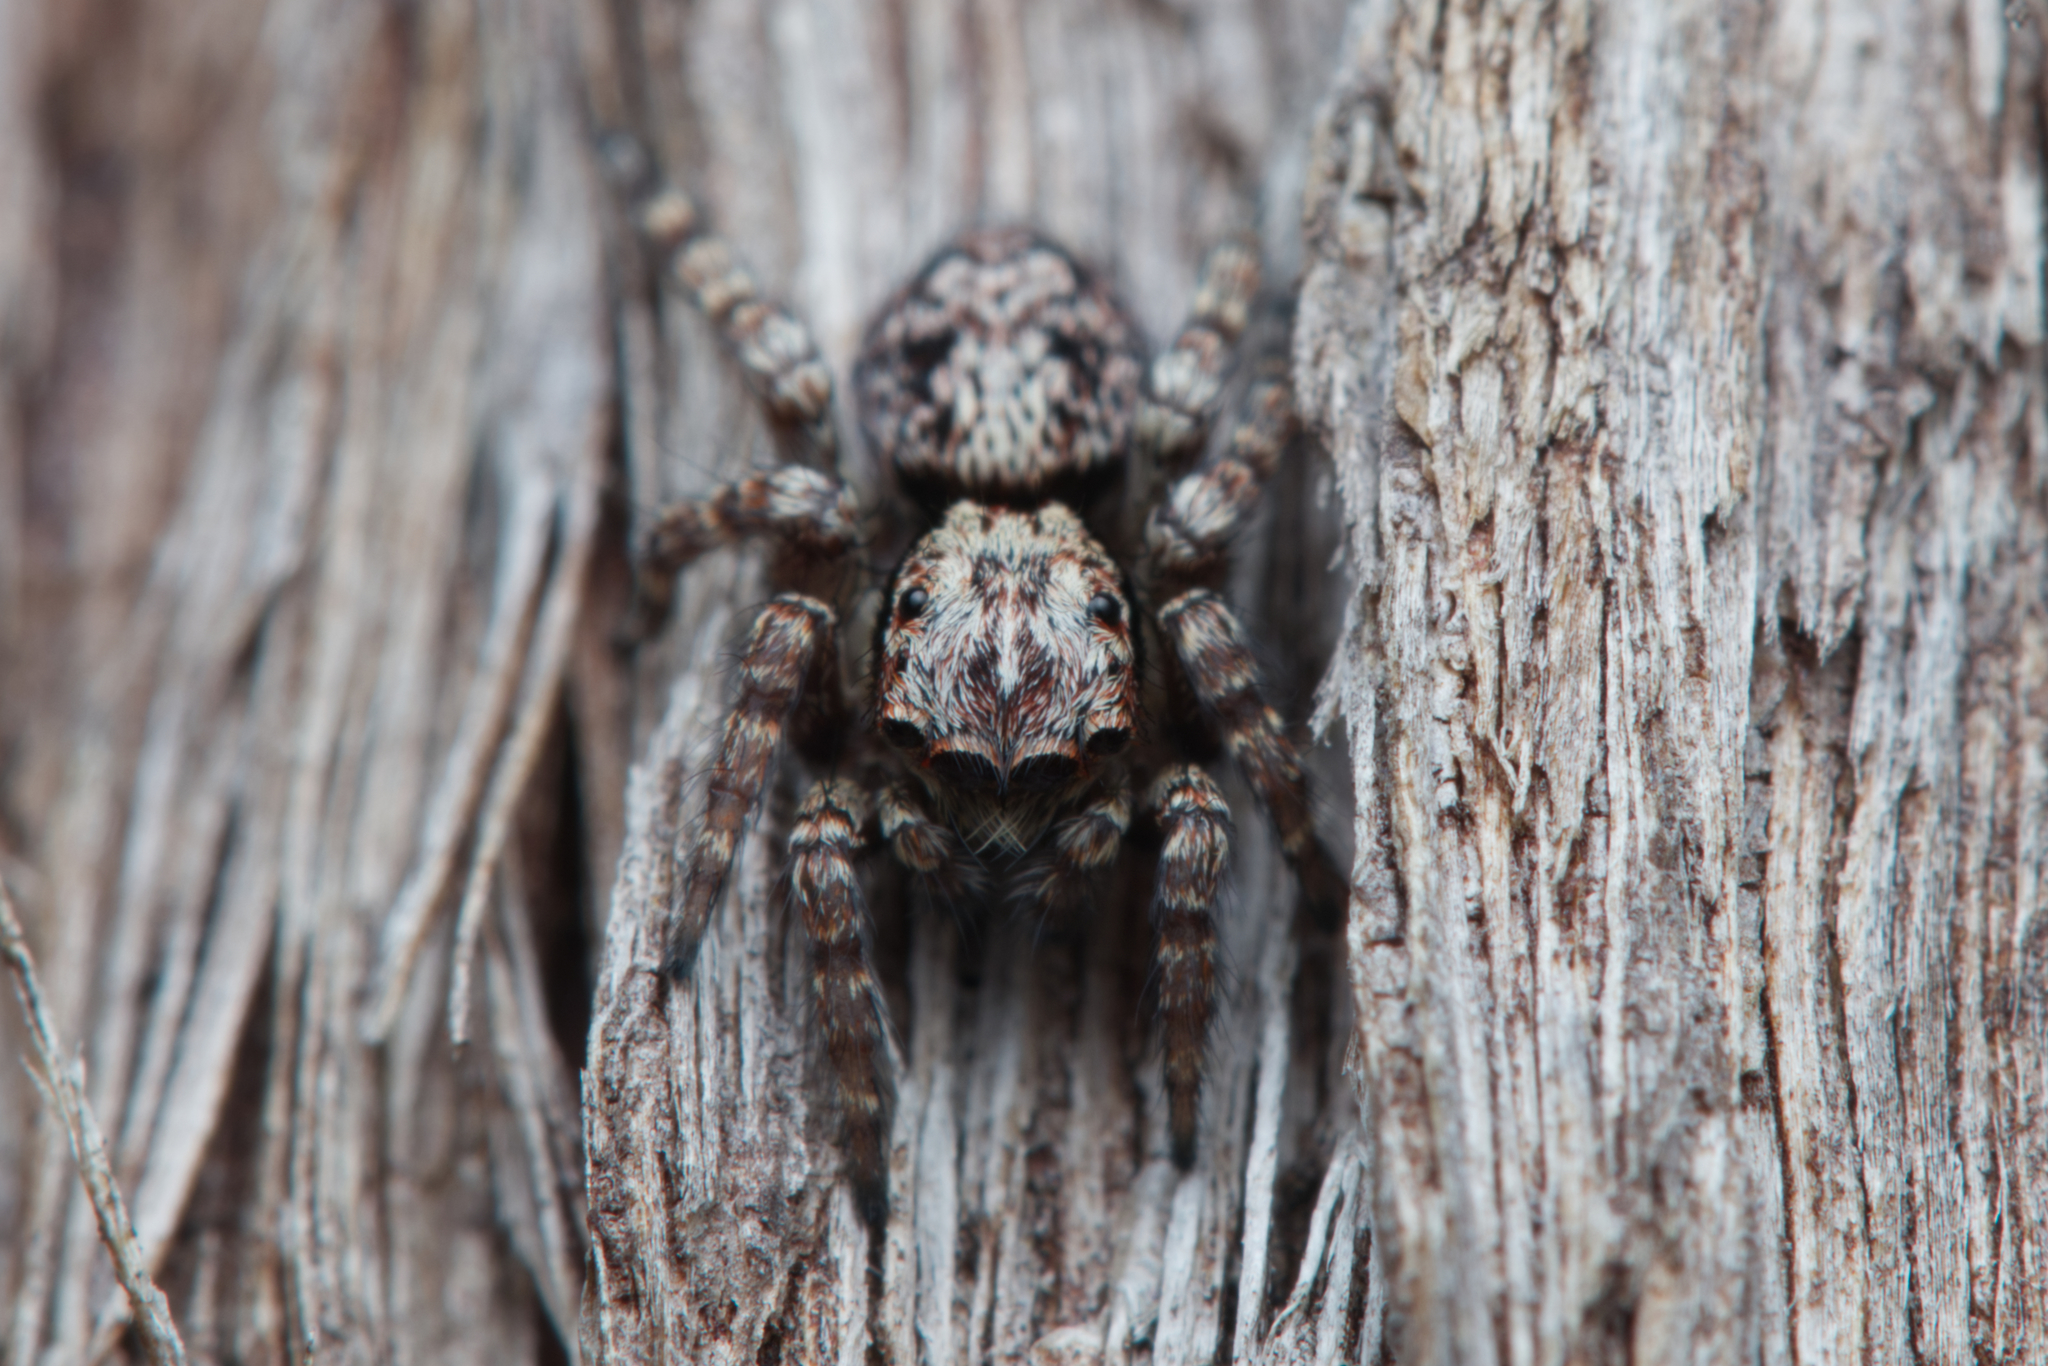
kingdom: Animalia
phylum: Arthropoda
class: Arachnida
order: Araneae
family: Salticidae
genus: Salpesia
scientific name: Salpesia squalida
